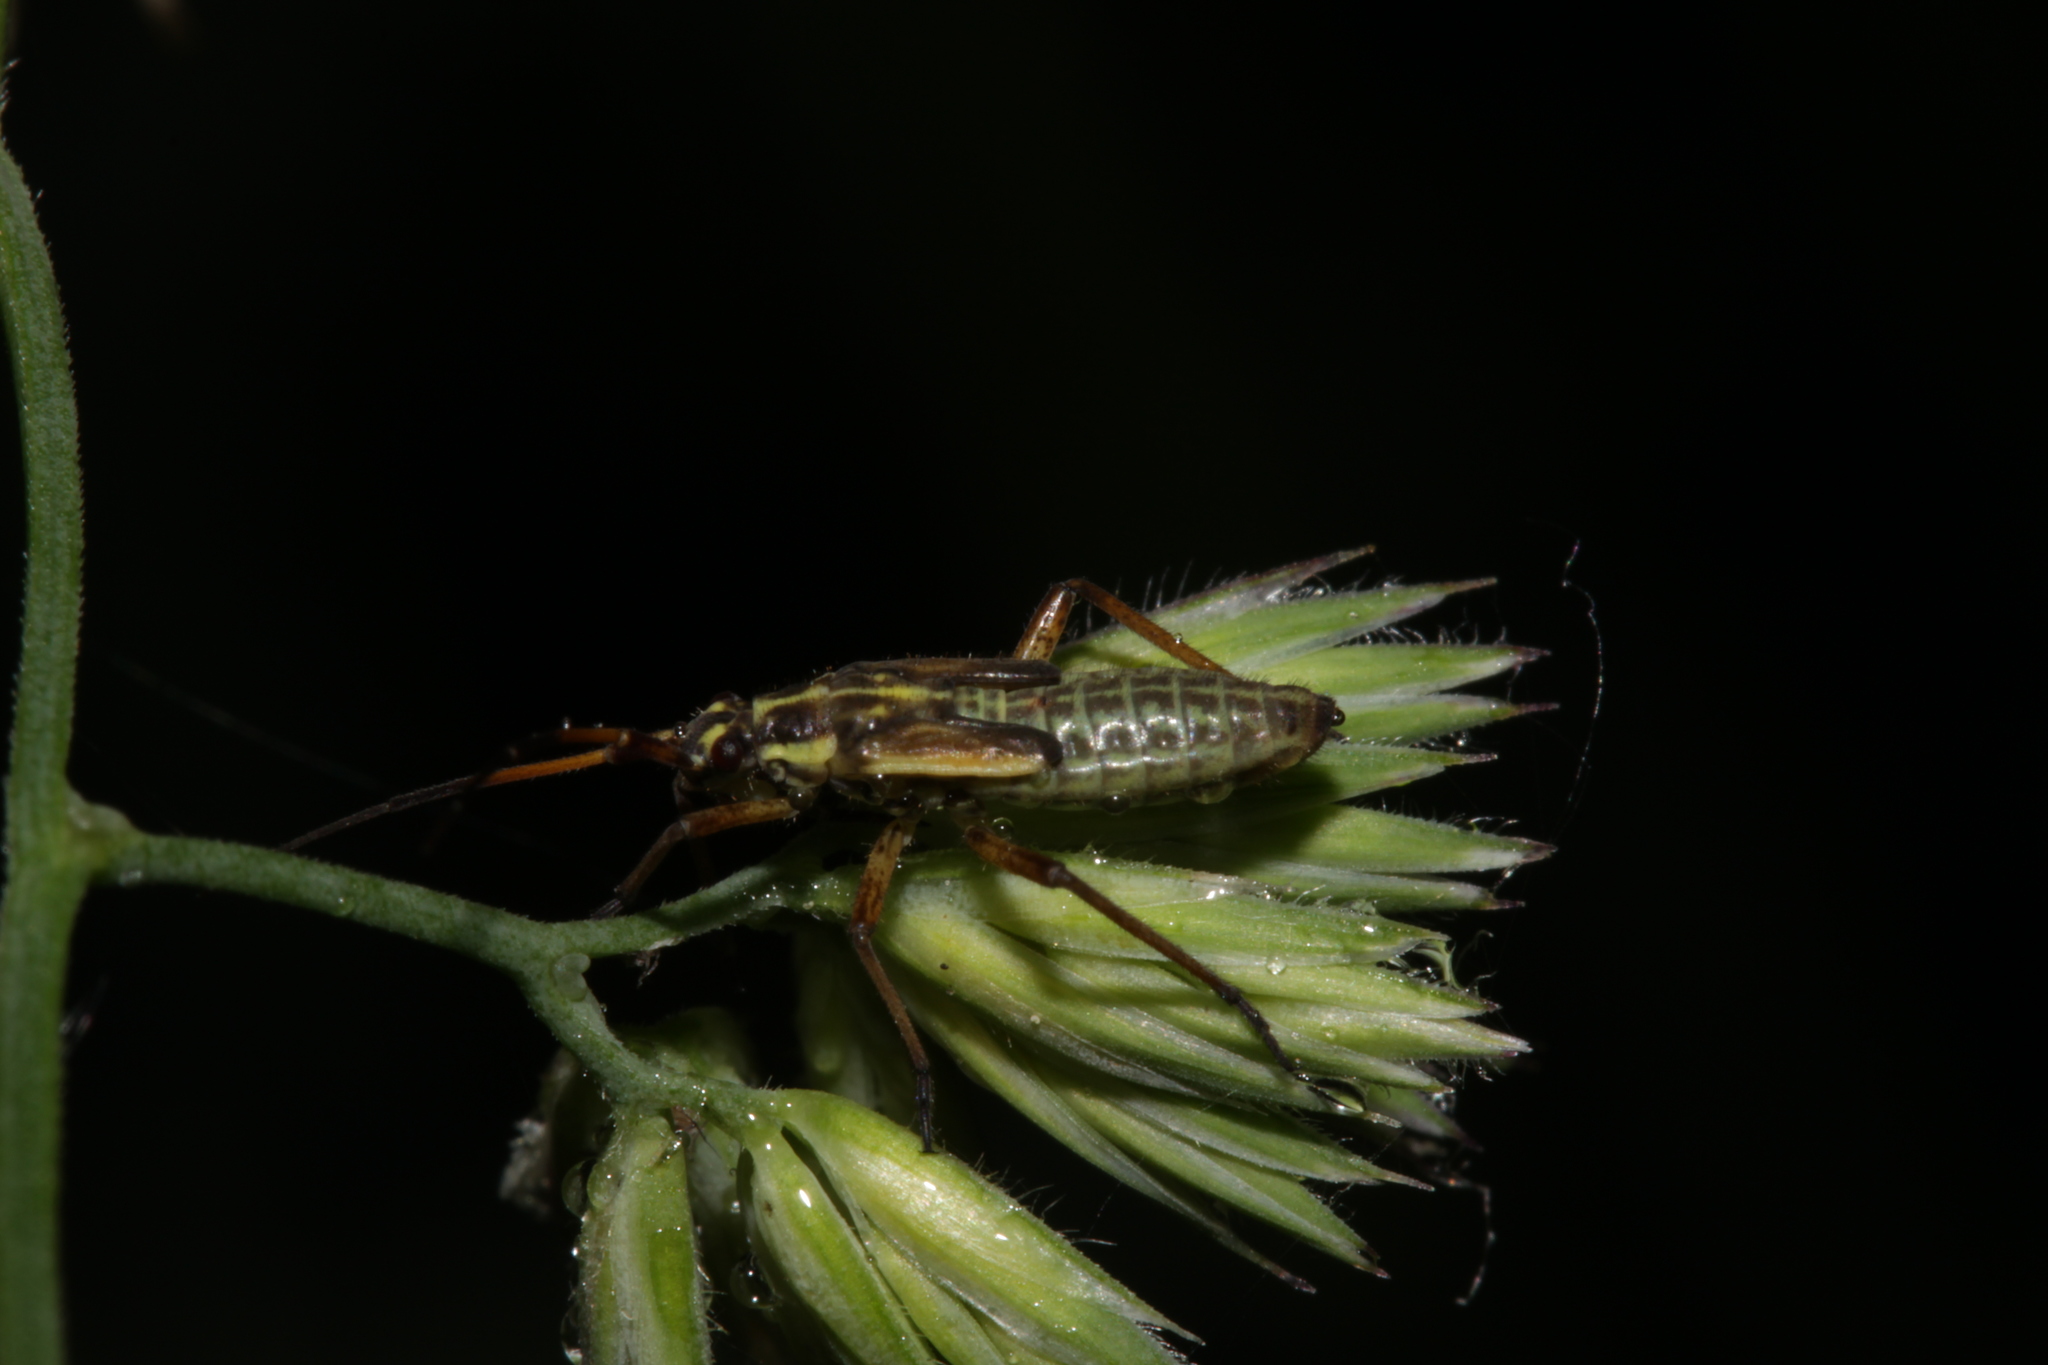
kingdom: Animalia
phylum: Arthropoda
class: Insecta
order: Hemiptera
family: Miridae
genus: Leptopterna
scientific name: Leptopterna dolabrata
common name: Meadow plant bug
